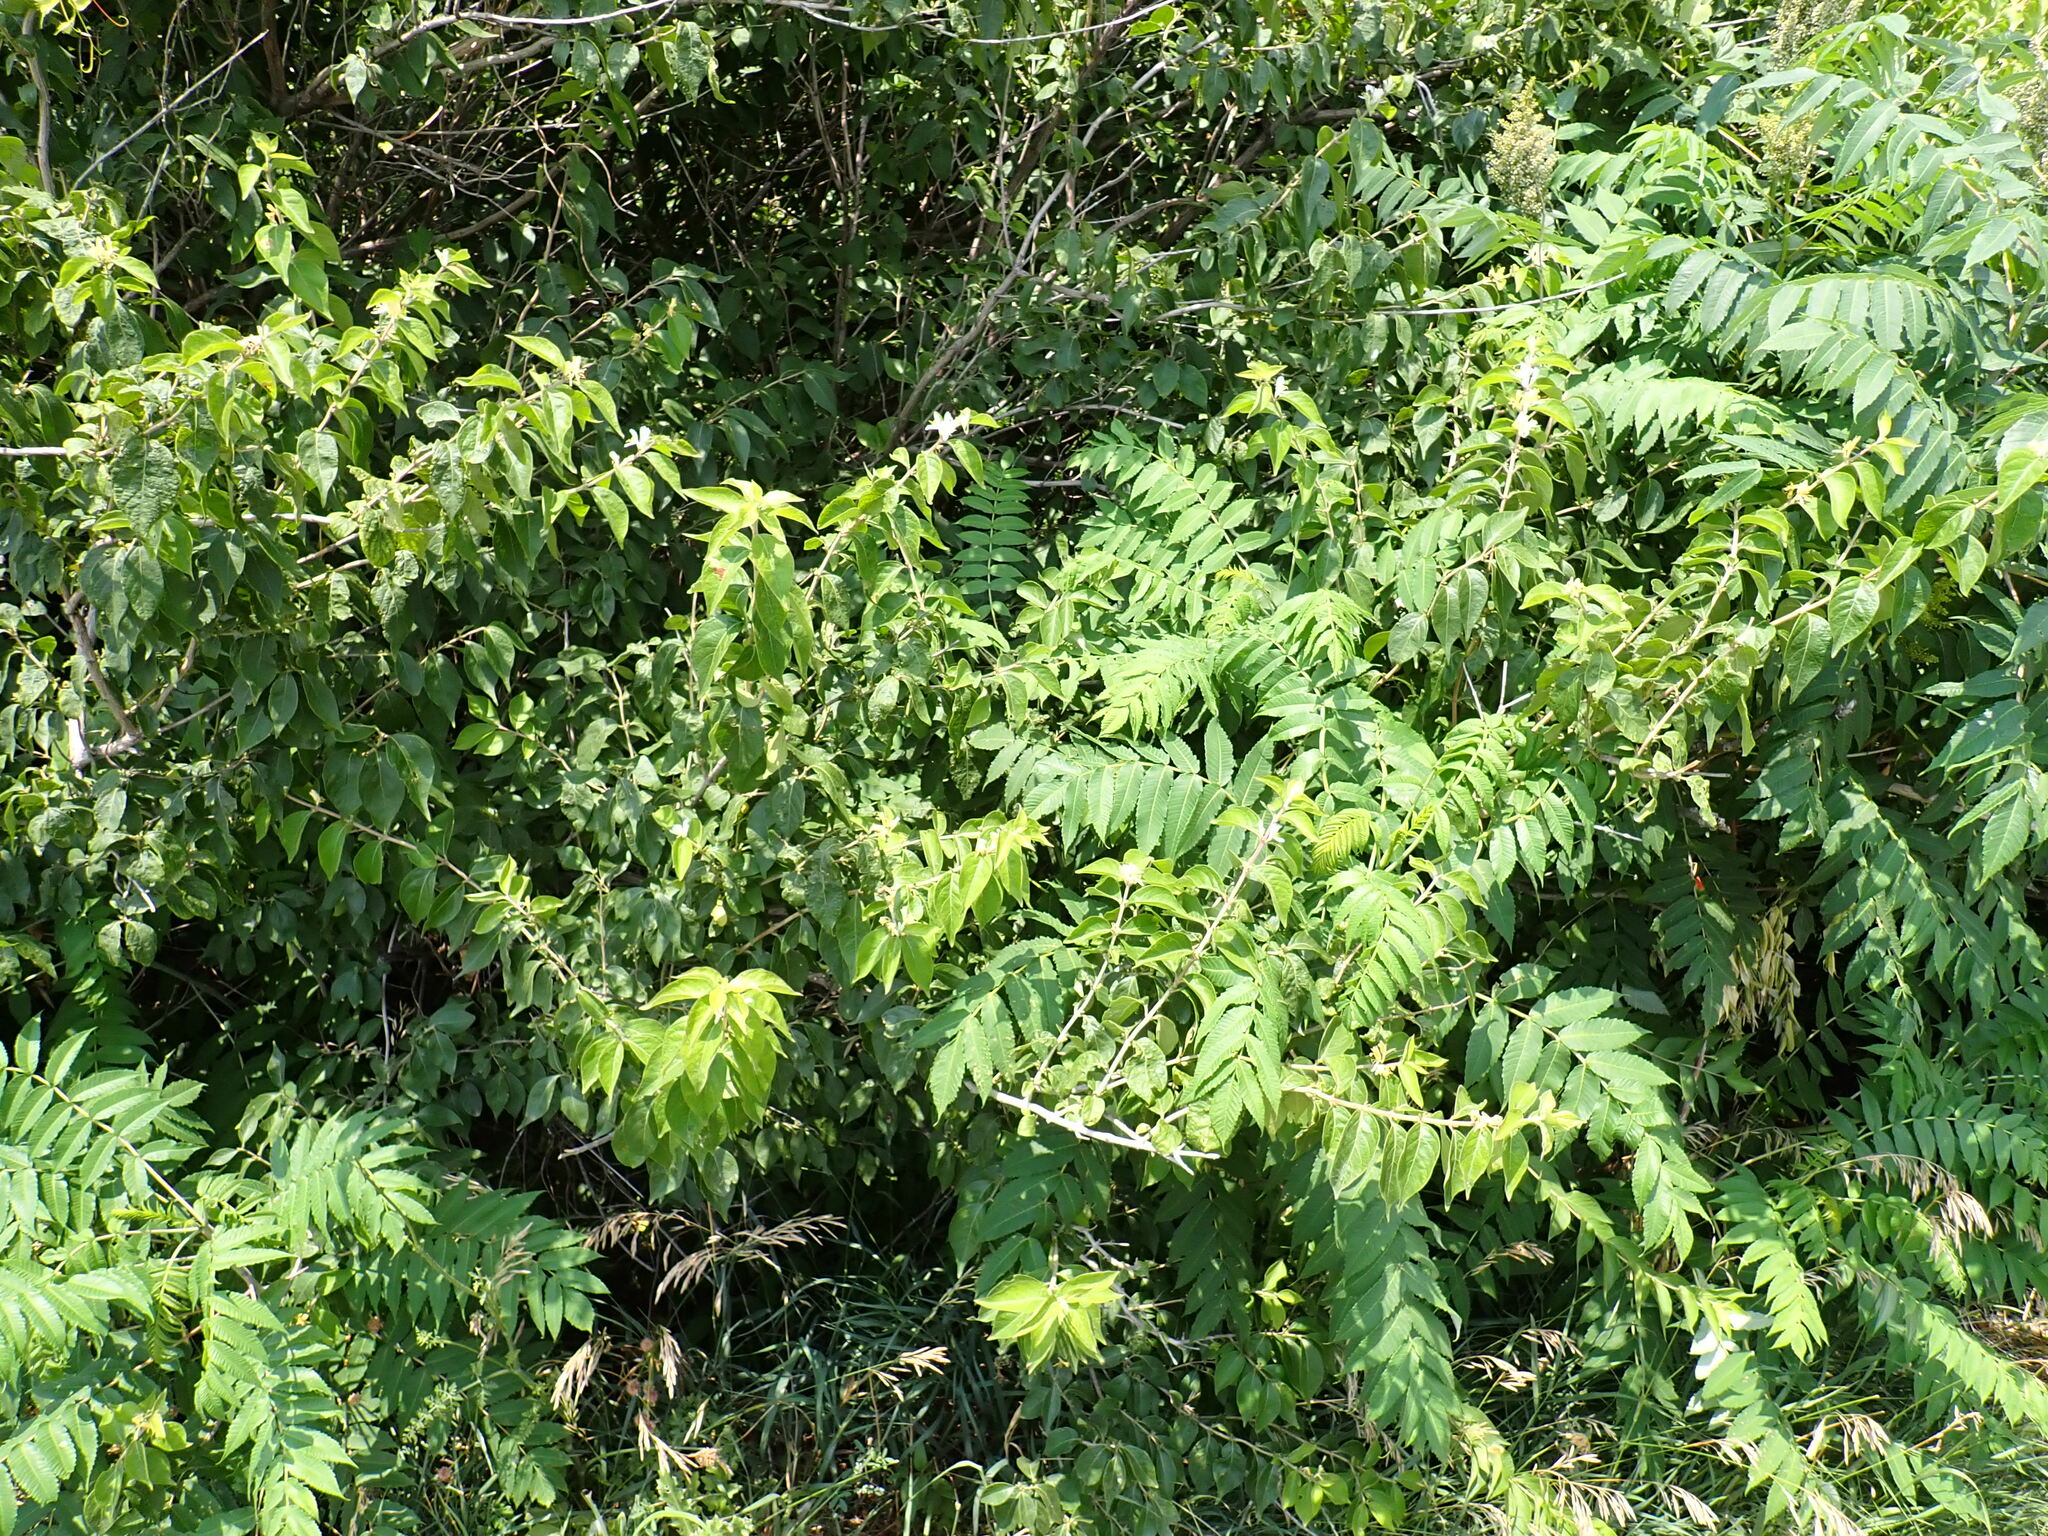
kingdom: Plantae
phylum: Tracheophyta
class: Magnoliopsida
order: Dipsacales
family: Caprifoliaceae
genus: Lonicera
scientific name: Lonicera maackii
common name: Amur honeysuckle
